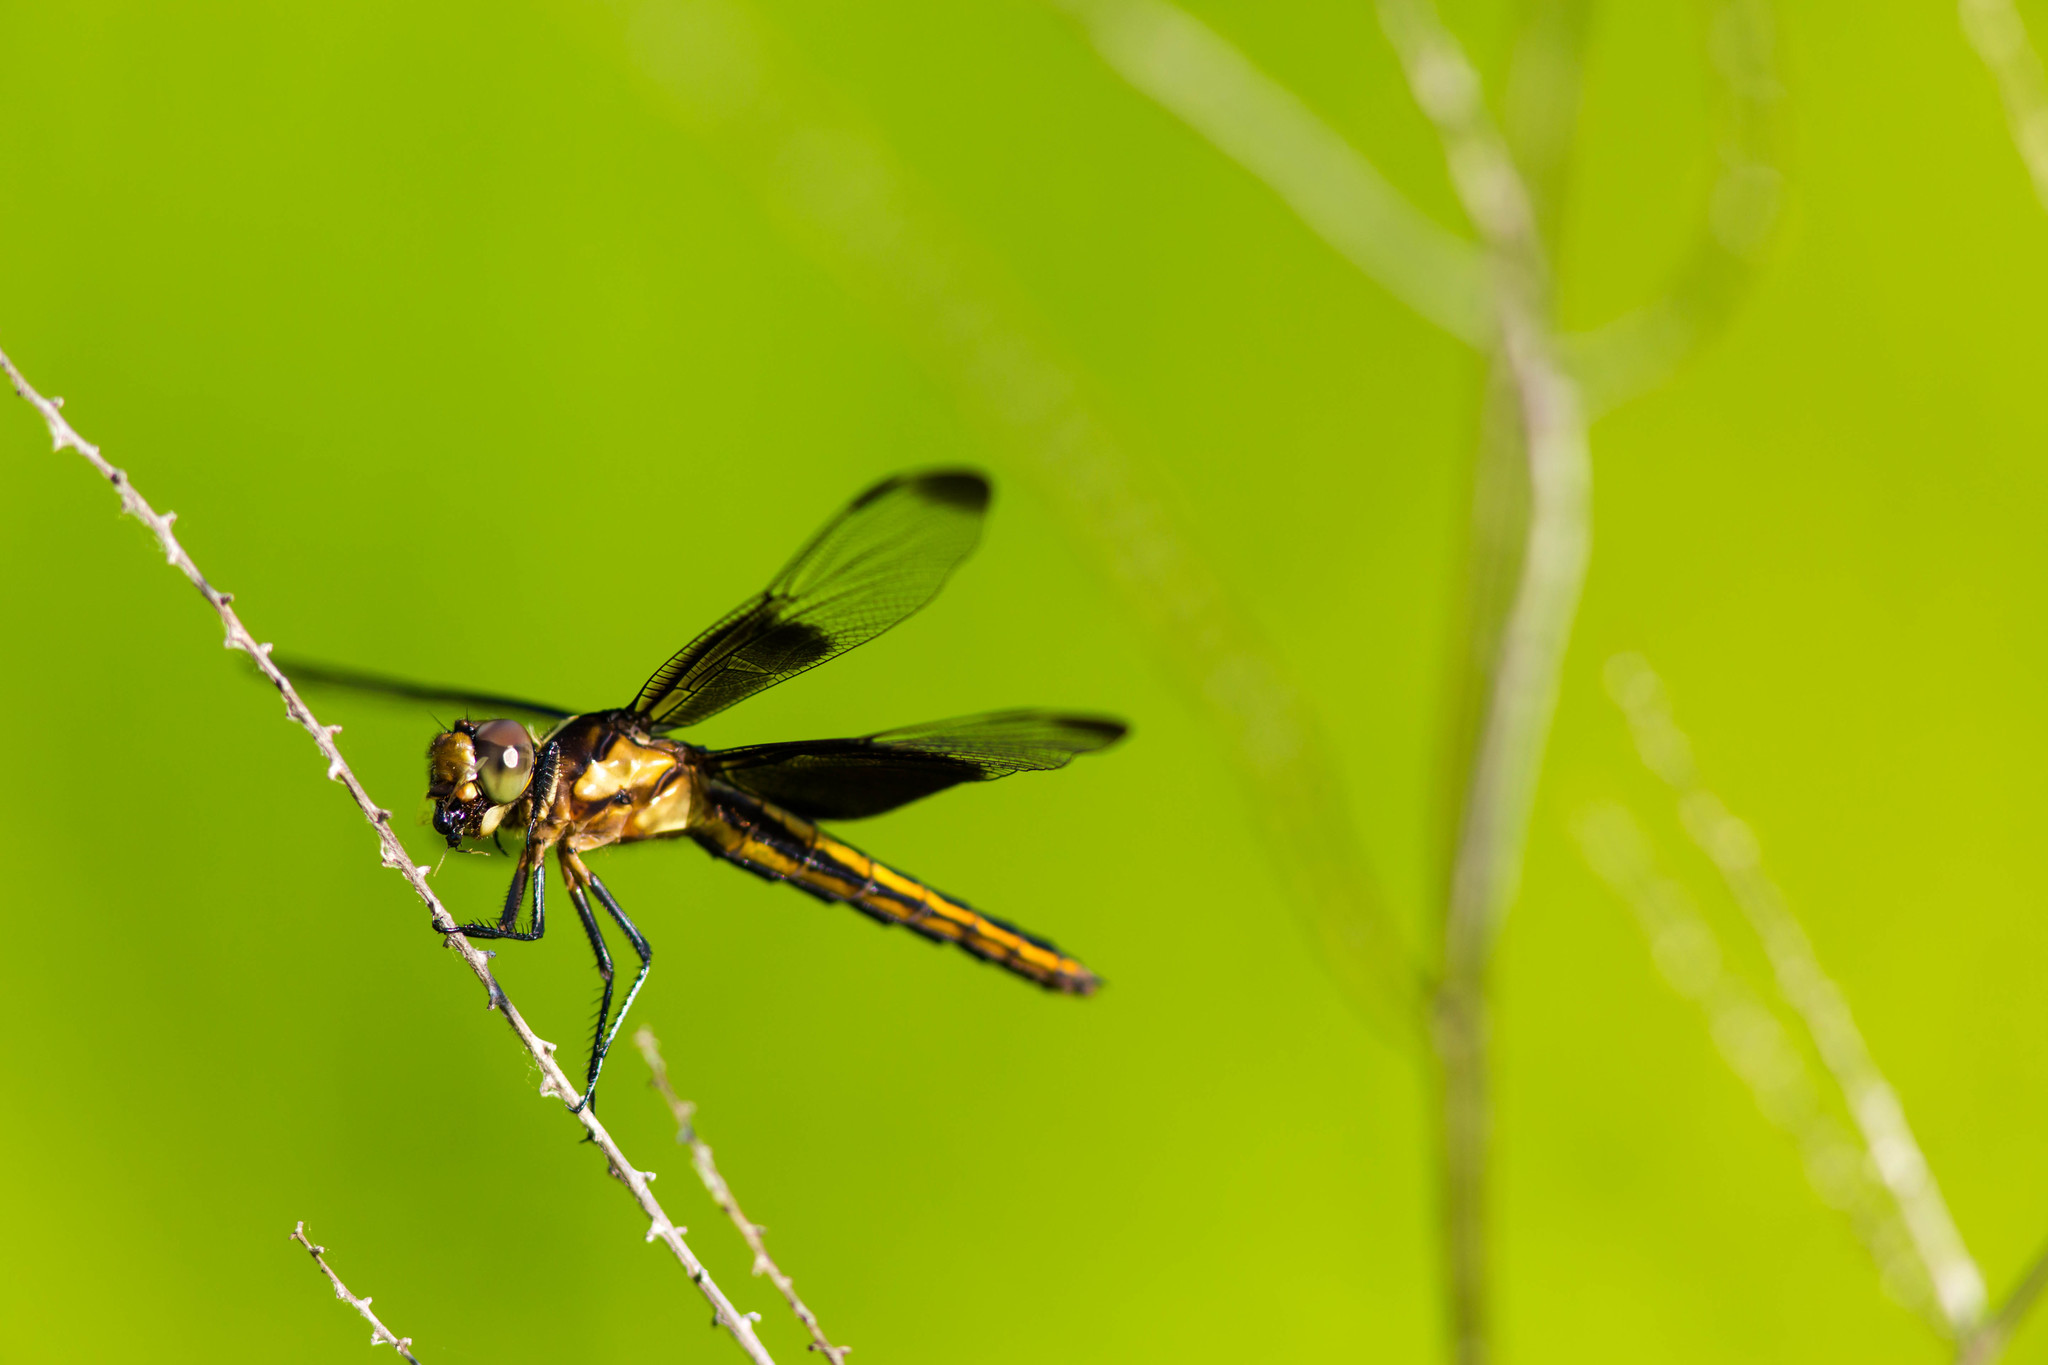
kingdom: Animalia
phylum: Arthropoda
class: Insecta
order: Odonata
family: Libellulidae
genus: Libellula
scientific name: Libellula luctuosa
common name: Widow skimmer
